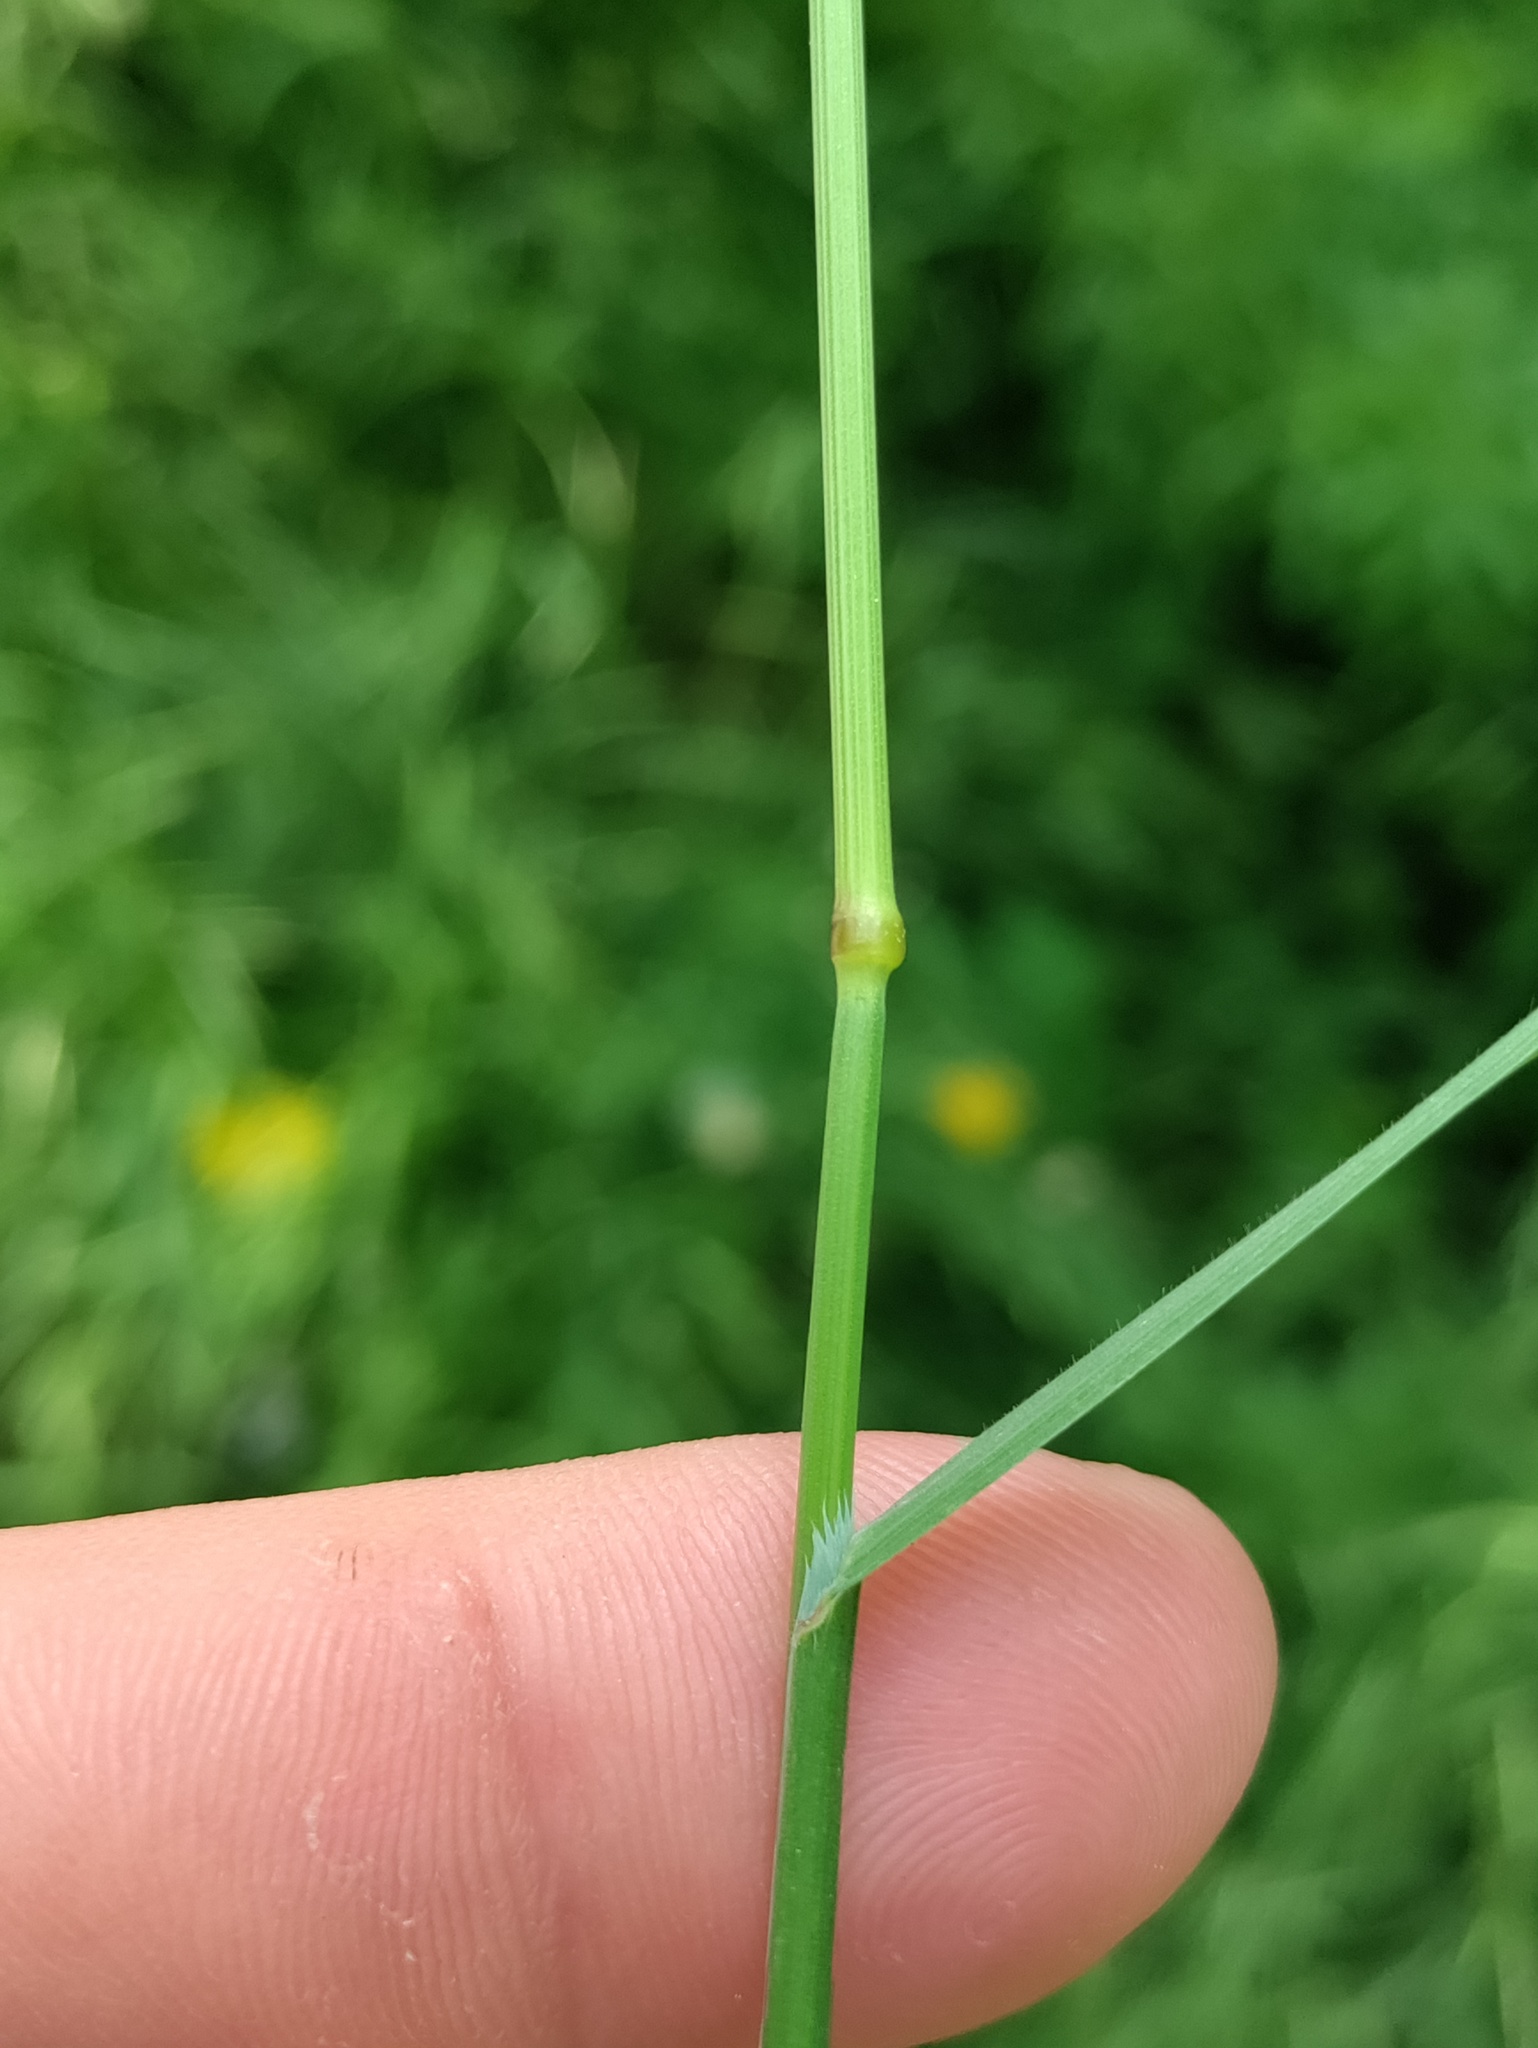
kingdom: Plantae
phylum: Tracheophyta
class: Liliopsida
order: Poales
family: Poaceae
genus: Bromus
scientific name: Bromus sterilis
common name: Poverty brome
